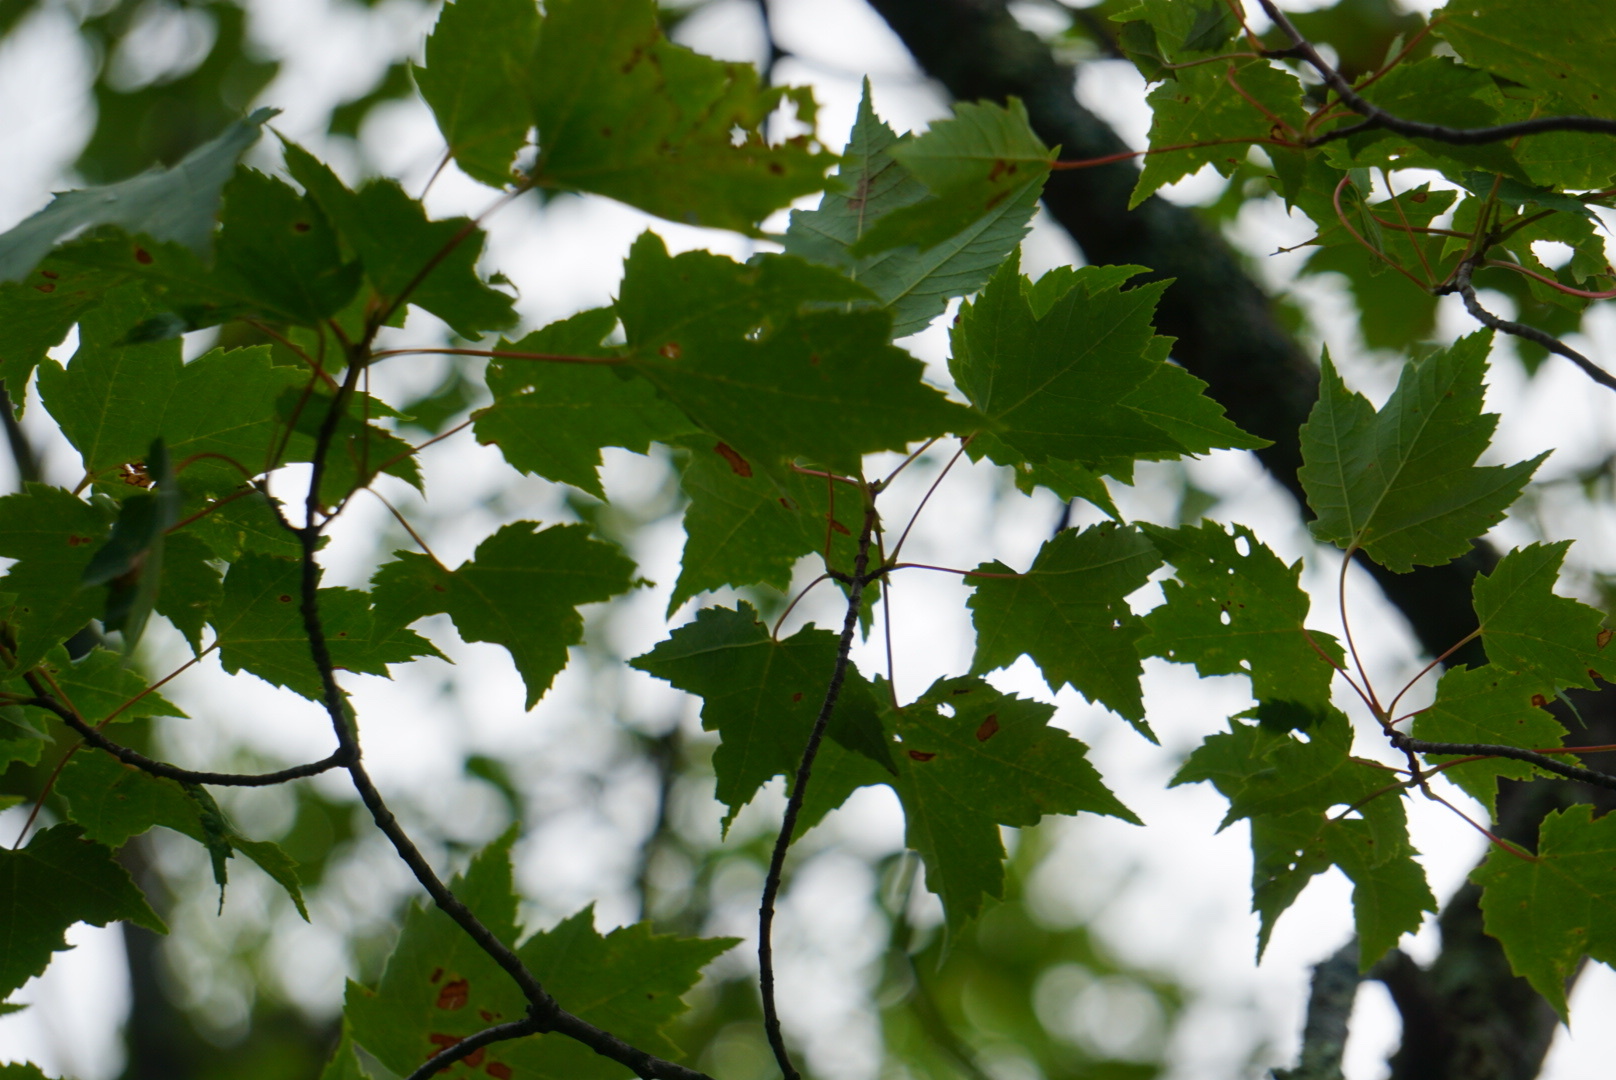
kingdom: Plantae
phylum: Tracheophyta
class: Magnoliopsida
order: Sapindales
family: Sapindaceae
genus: Acer
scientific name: Acer rubrum
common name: Red maple
